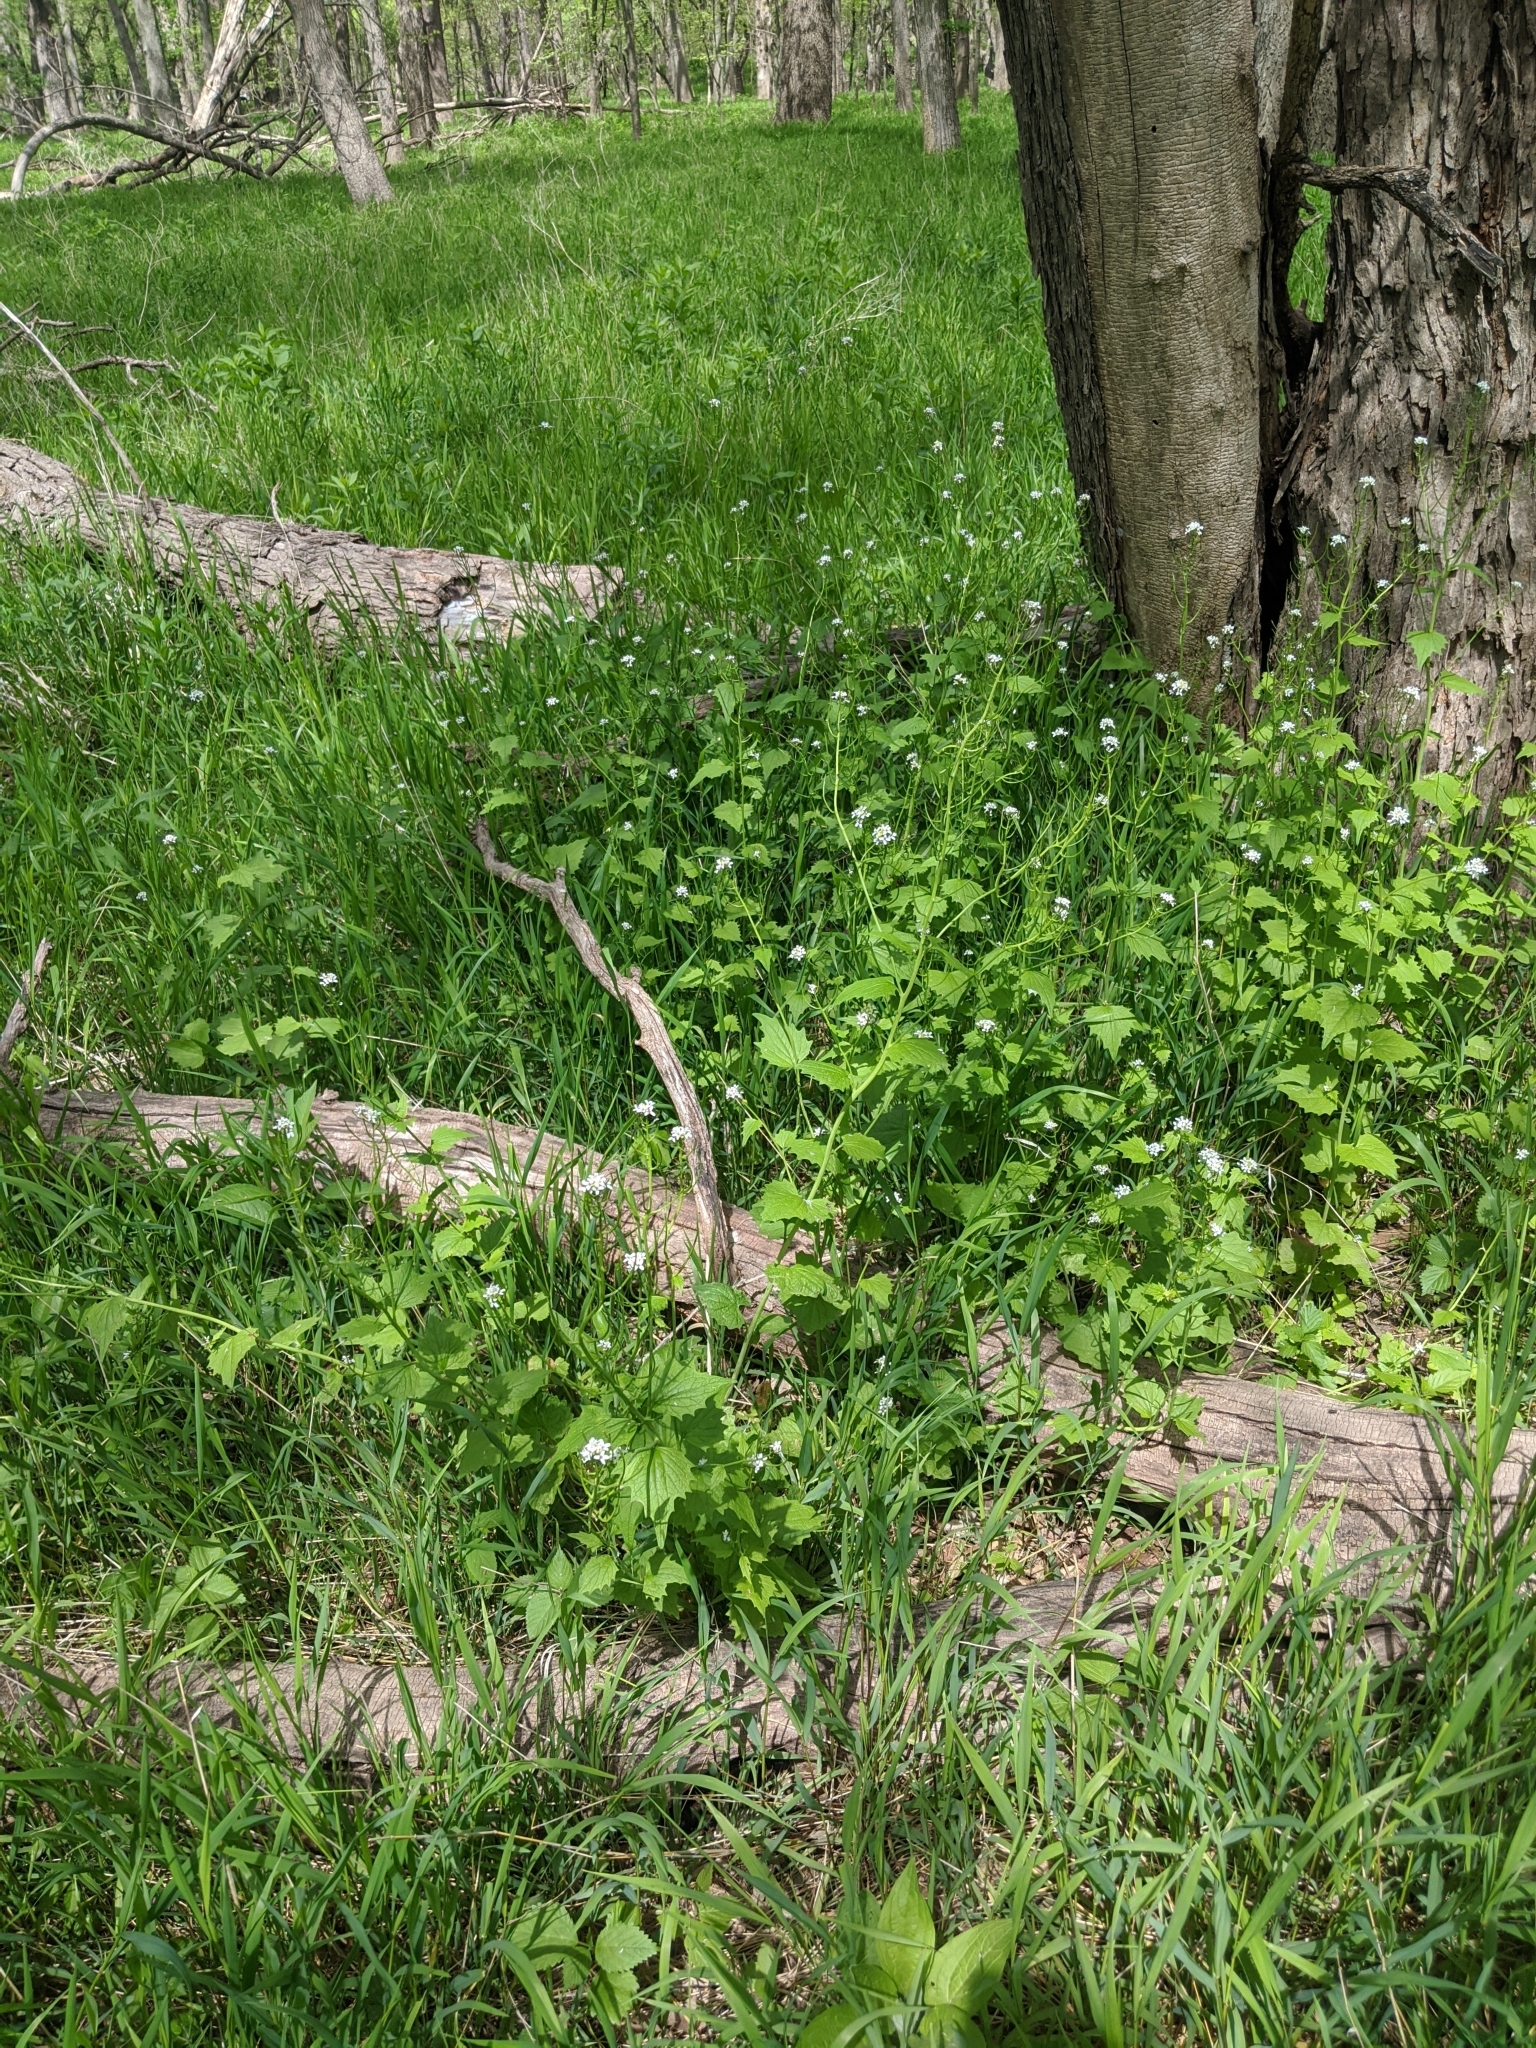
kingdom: Plantae
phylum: Tracheophyta
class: Magnoliopsida
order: Brassicales
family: Brassicaceae
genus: Alliaria
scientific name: Alliaria petiolata
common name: Garlic mustard
